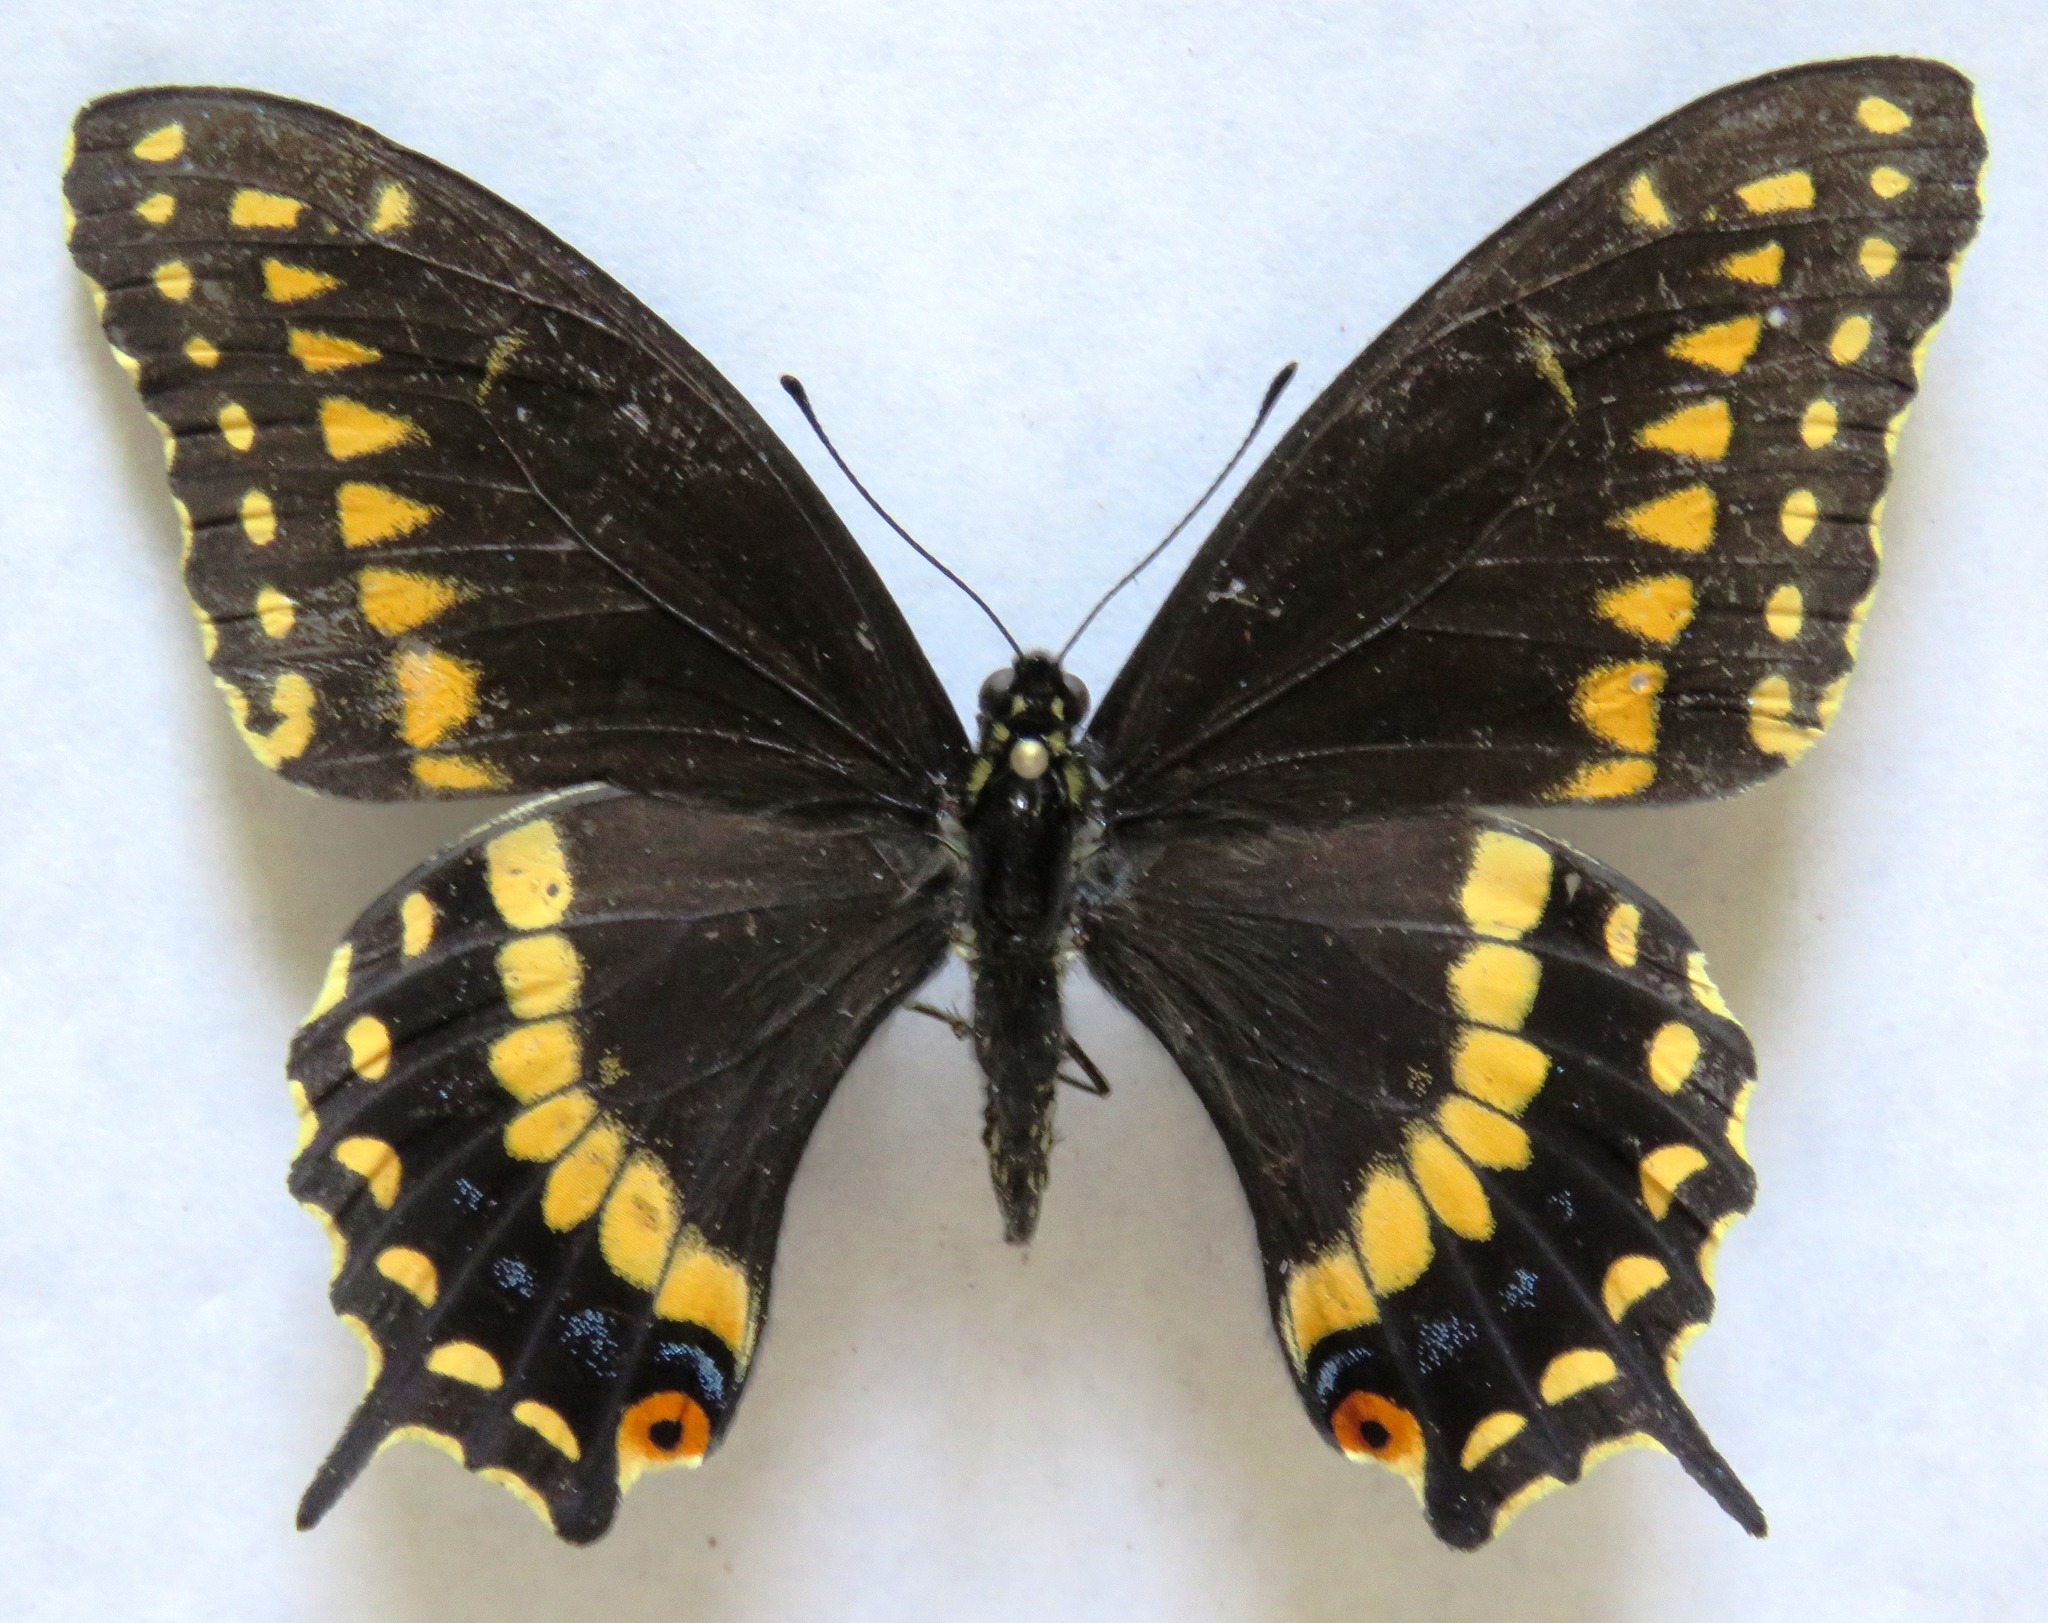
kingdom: Animalia
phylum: Arthropoda
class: Insecta
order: Lepidoptera
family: Papilionidae
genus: Papilio
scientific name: Papilio polyxenes
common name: Black swallowtail
